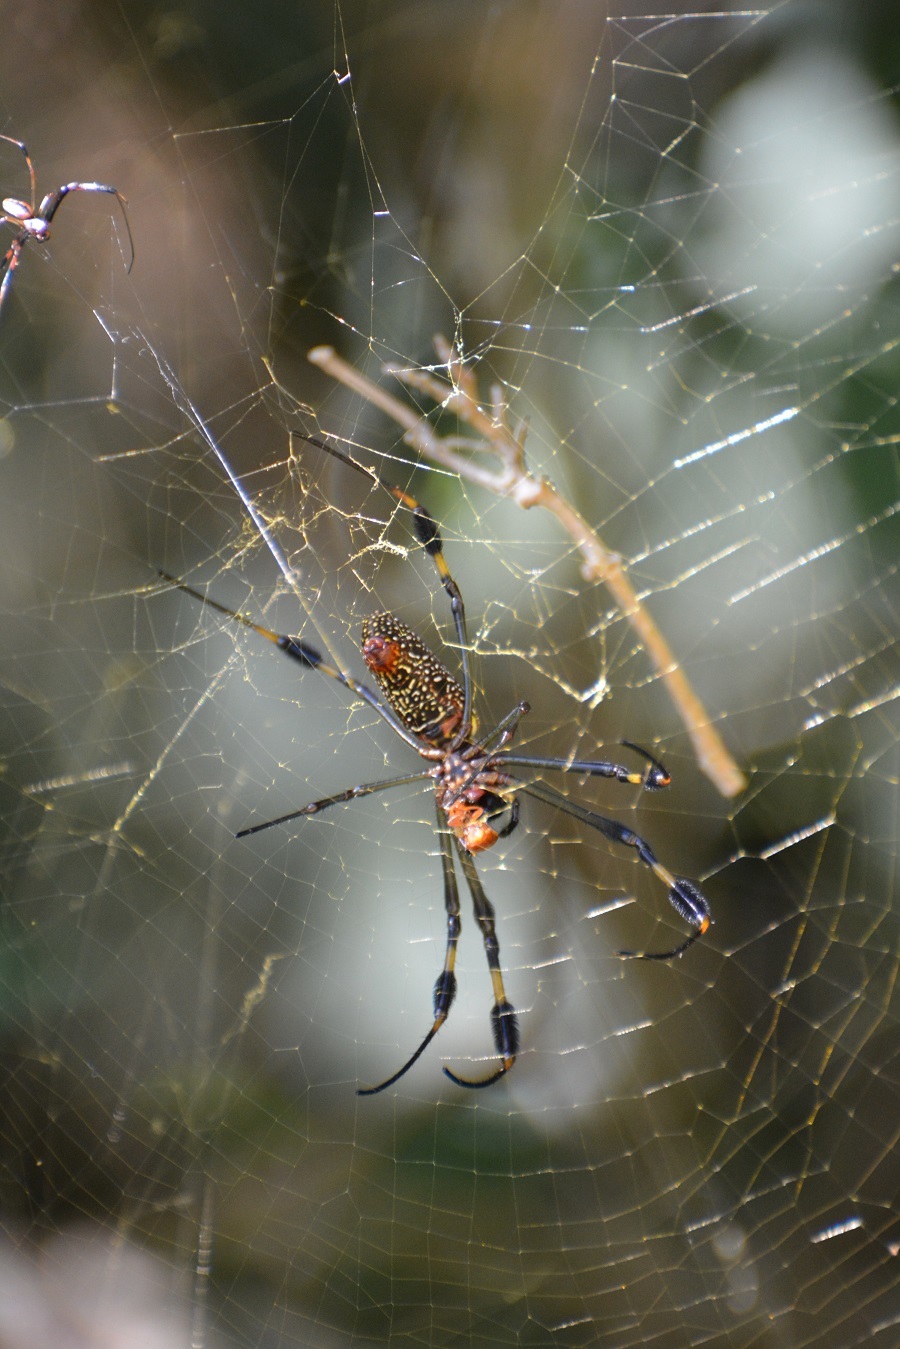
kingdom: Animalia
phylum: Arthropoda
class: Arachnida
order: Araneae
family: Araneidae
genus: Trichonephila
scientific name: Trichonephila clavipes
